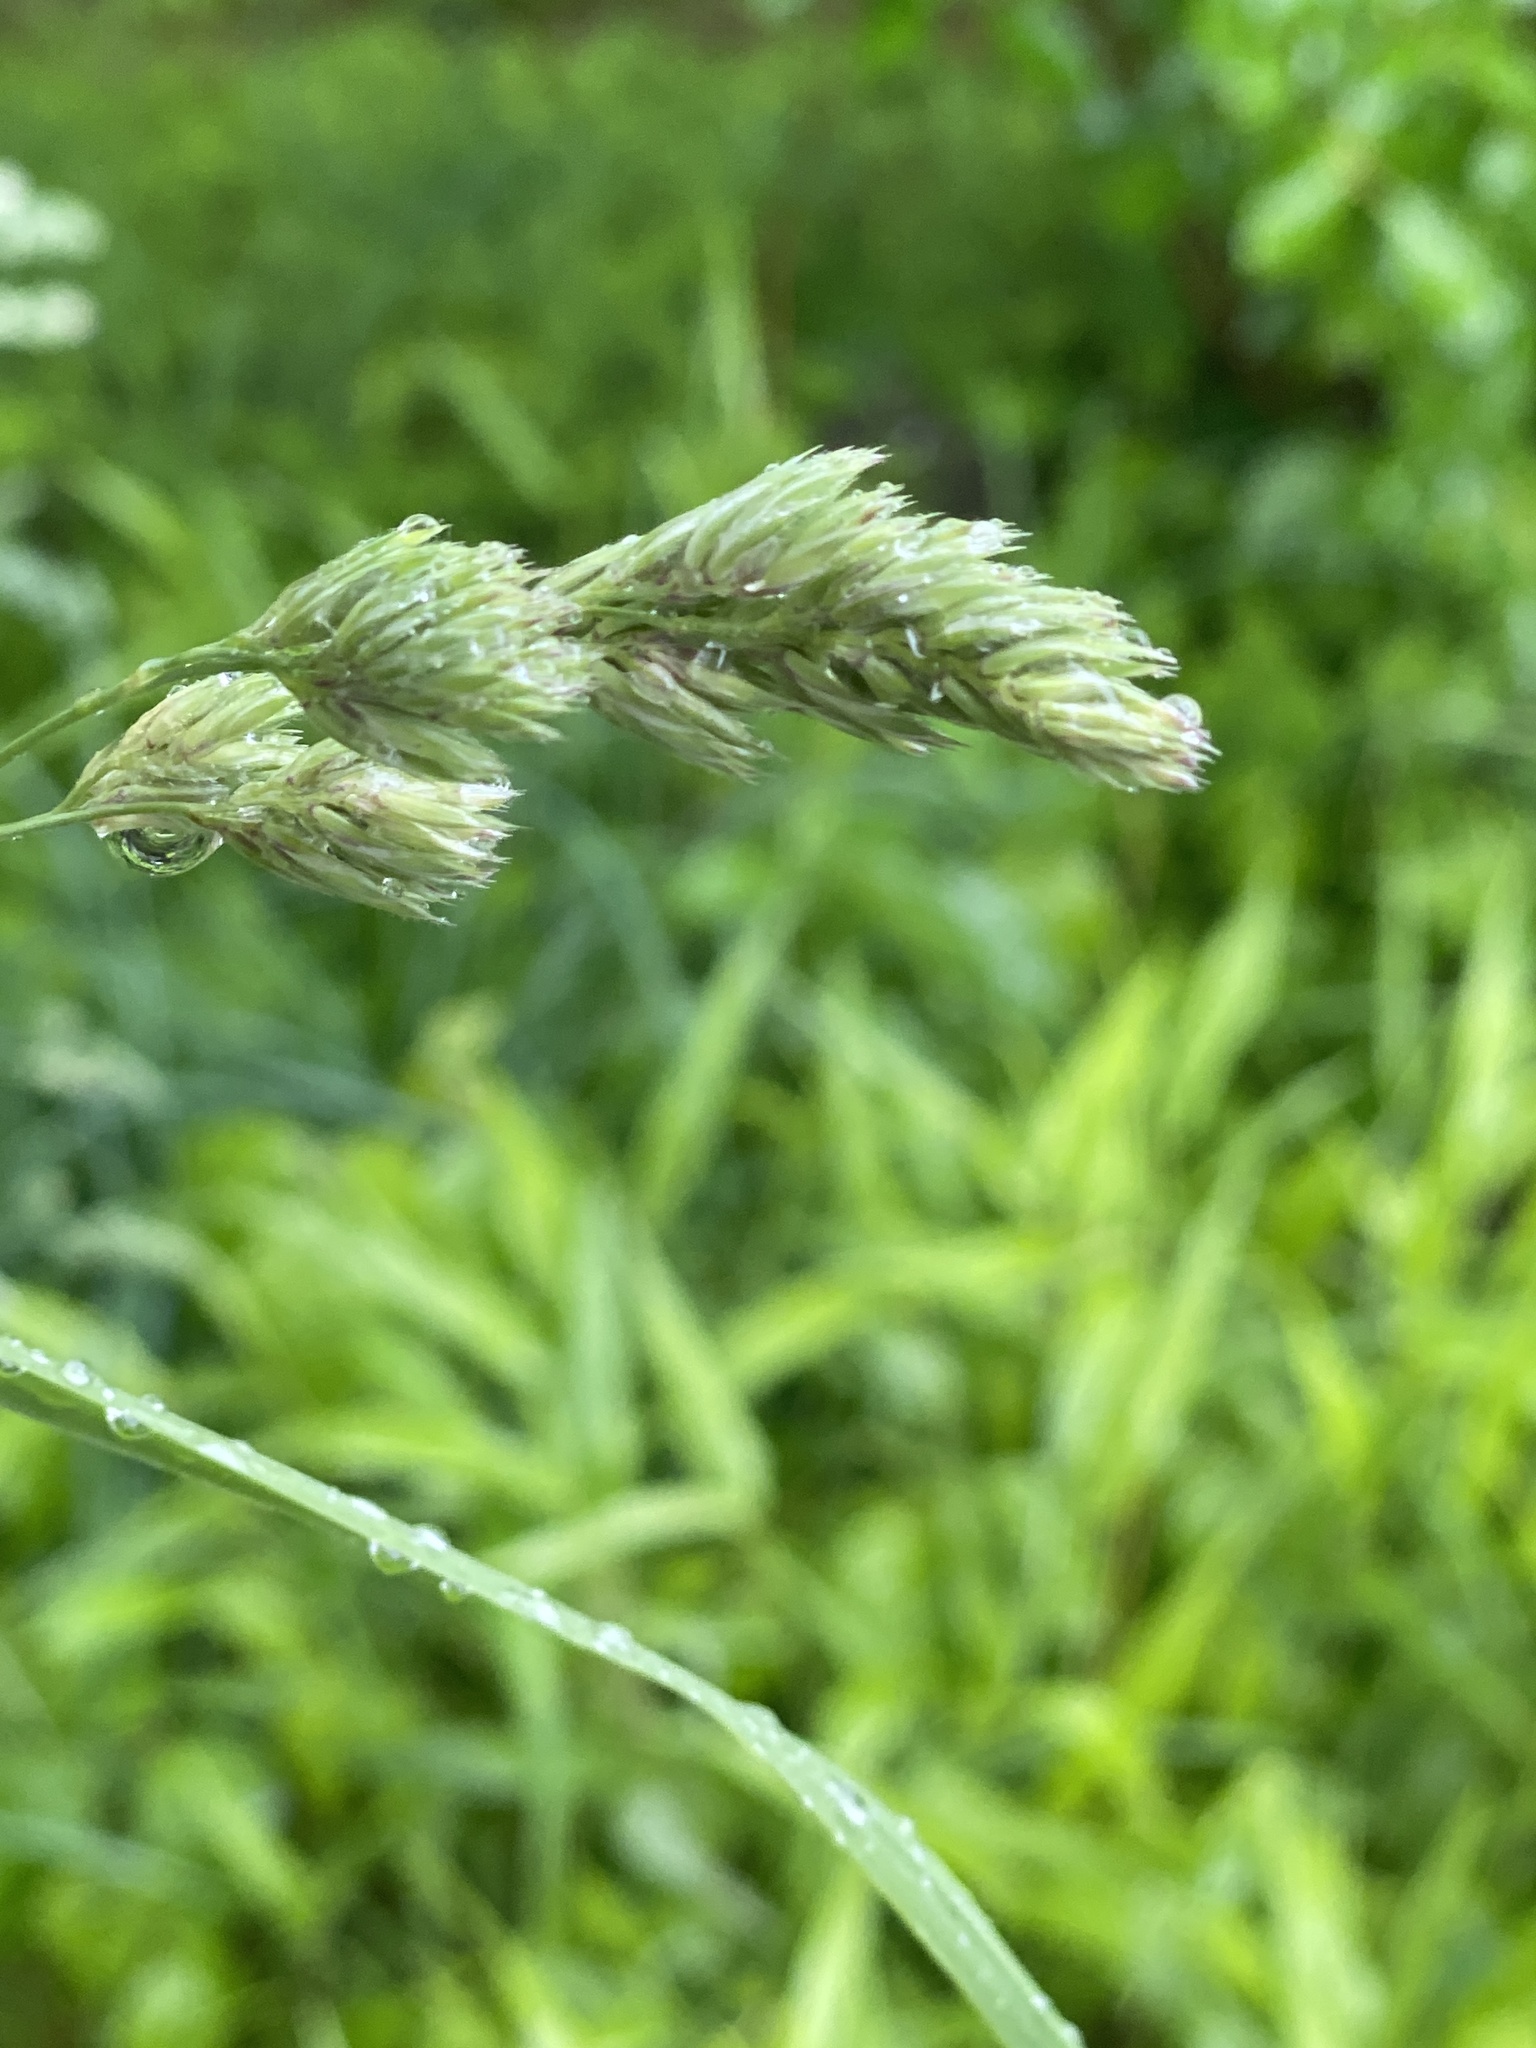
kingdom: Plantae
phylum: Tracheophyta
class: Liliopsida
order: Poales
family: Poaceae
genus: Dactylis
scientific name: Dactylis glomerata
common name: Orchardgrass
